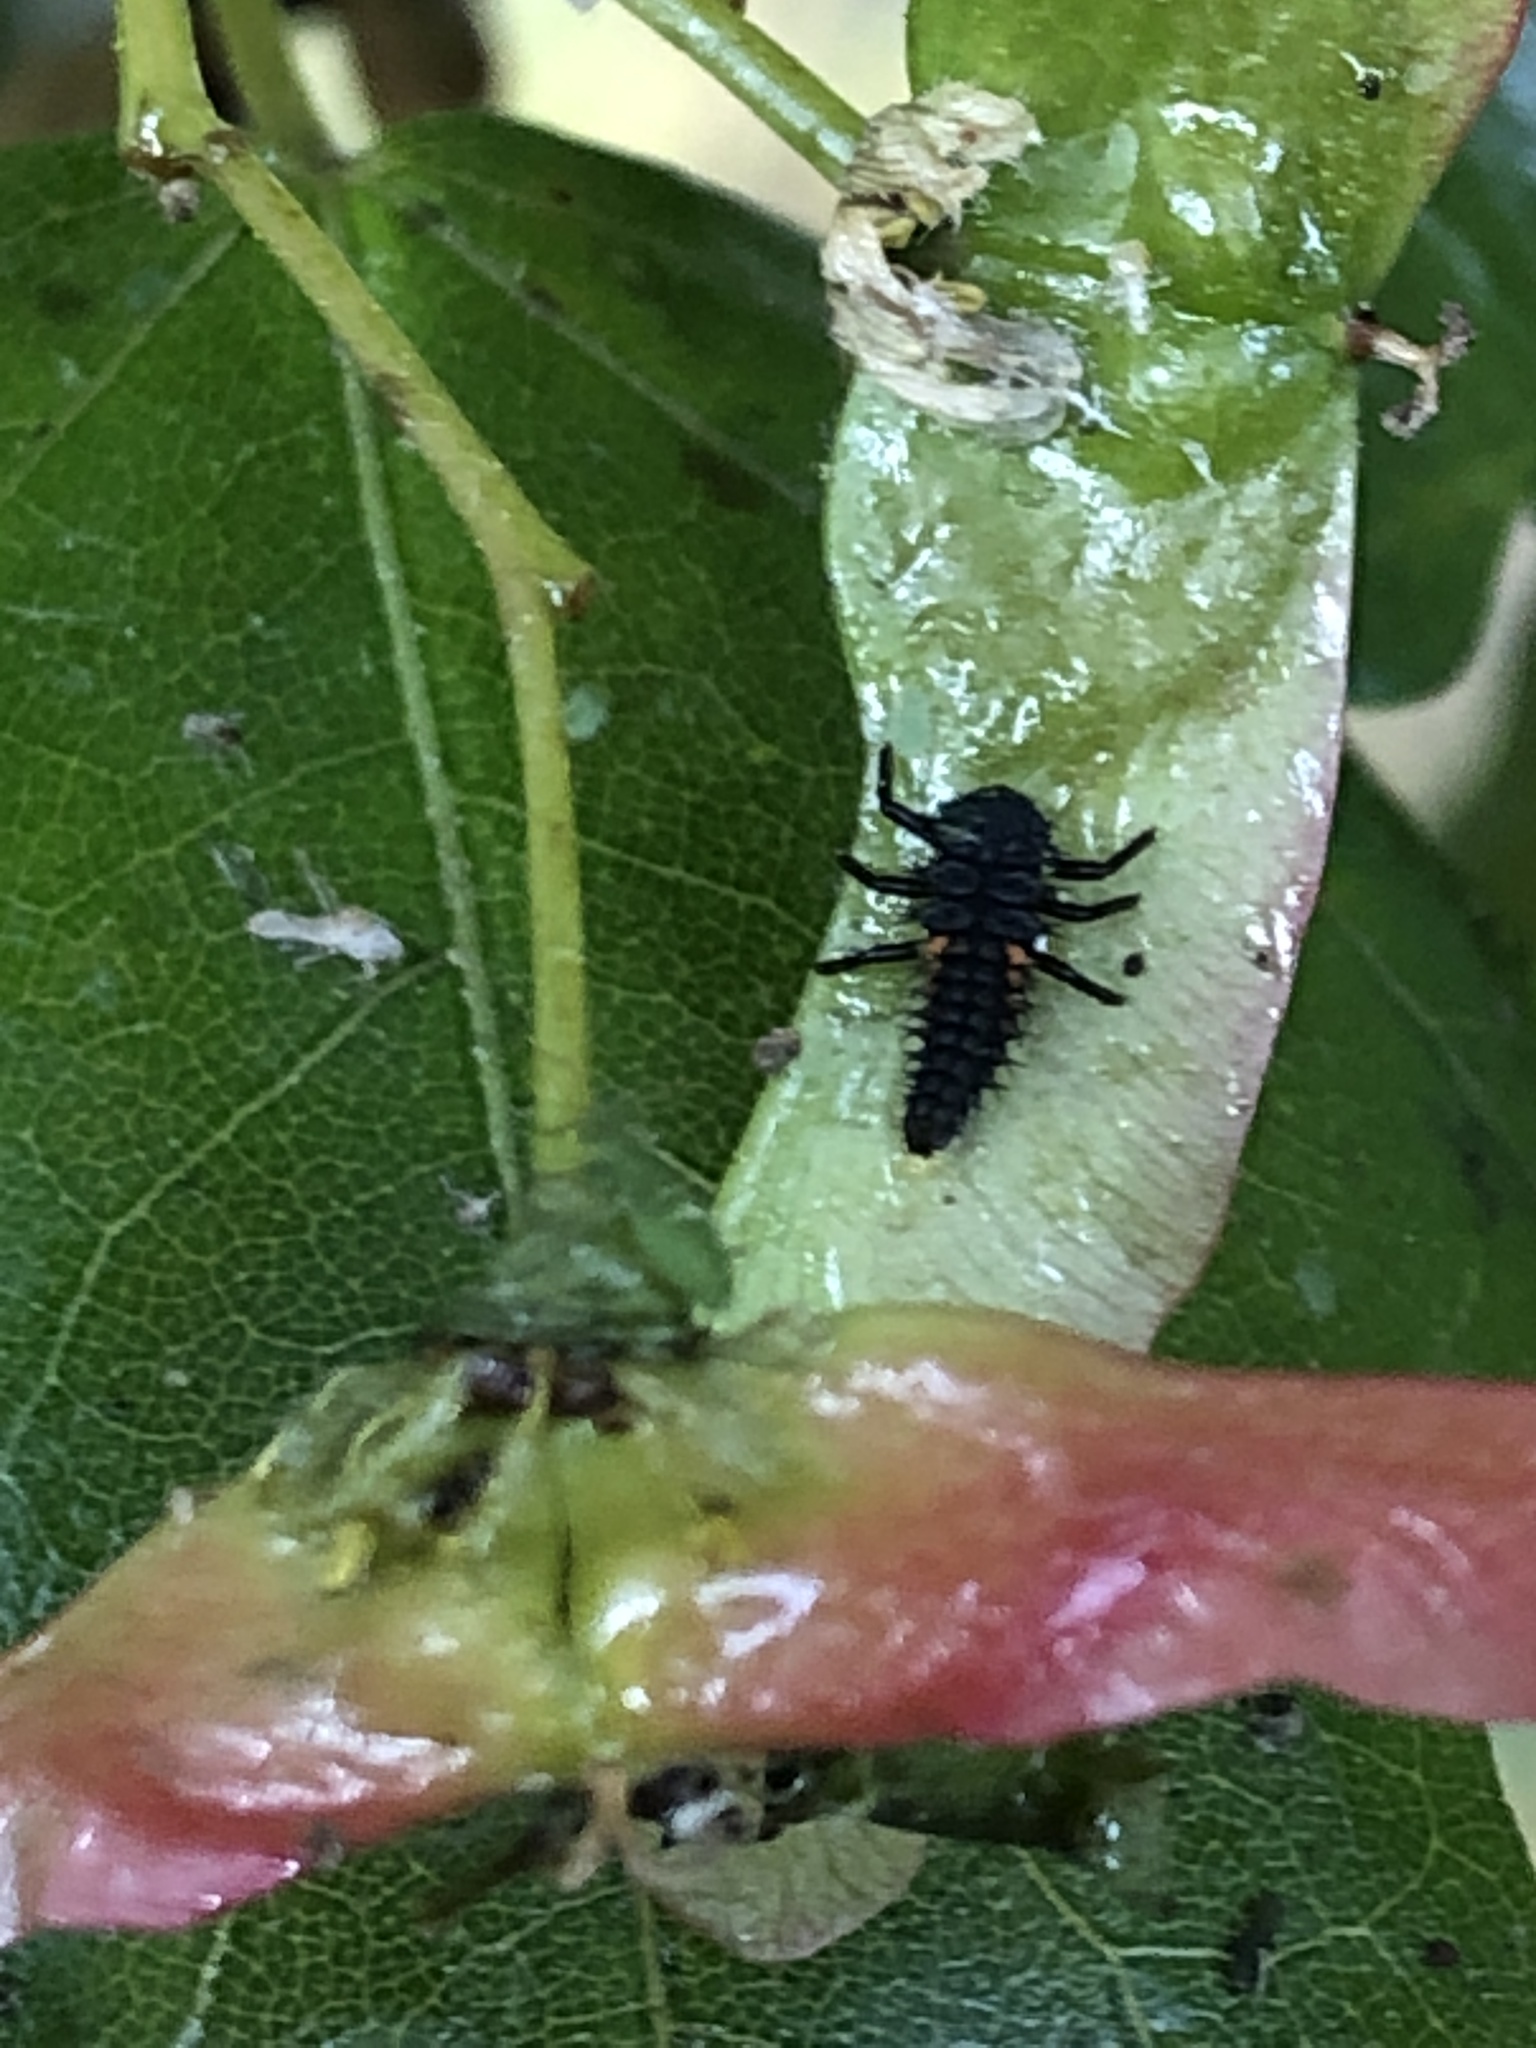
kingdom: Animalia
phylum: Arthropoda
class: Insecta
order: Coleoptera
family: Coccinellidae
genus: Harmonia
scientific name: Harmonia axyridis
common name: Harlequin ladybird
